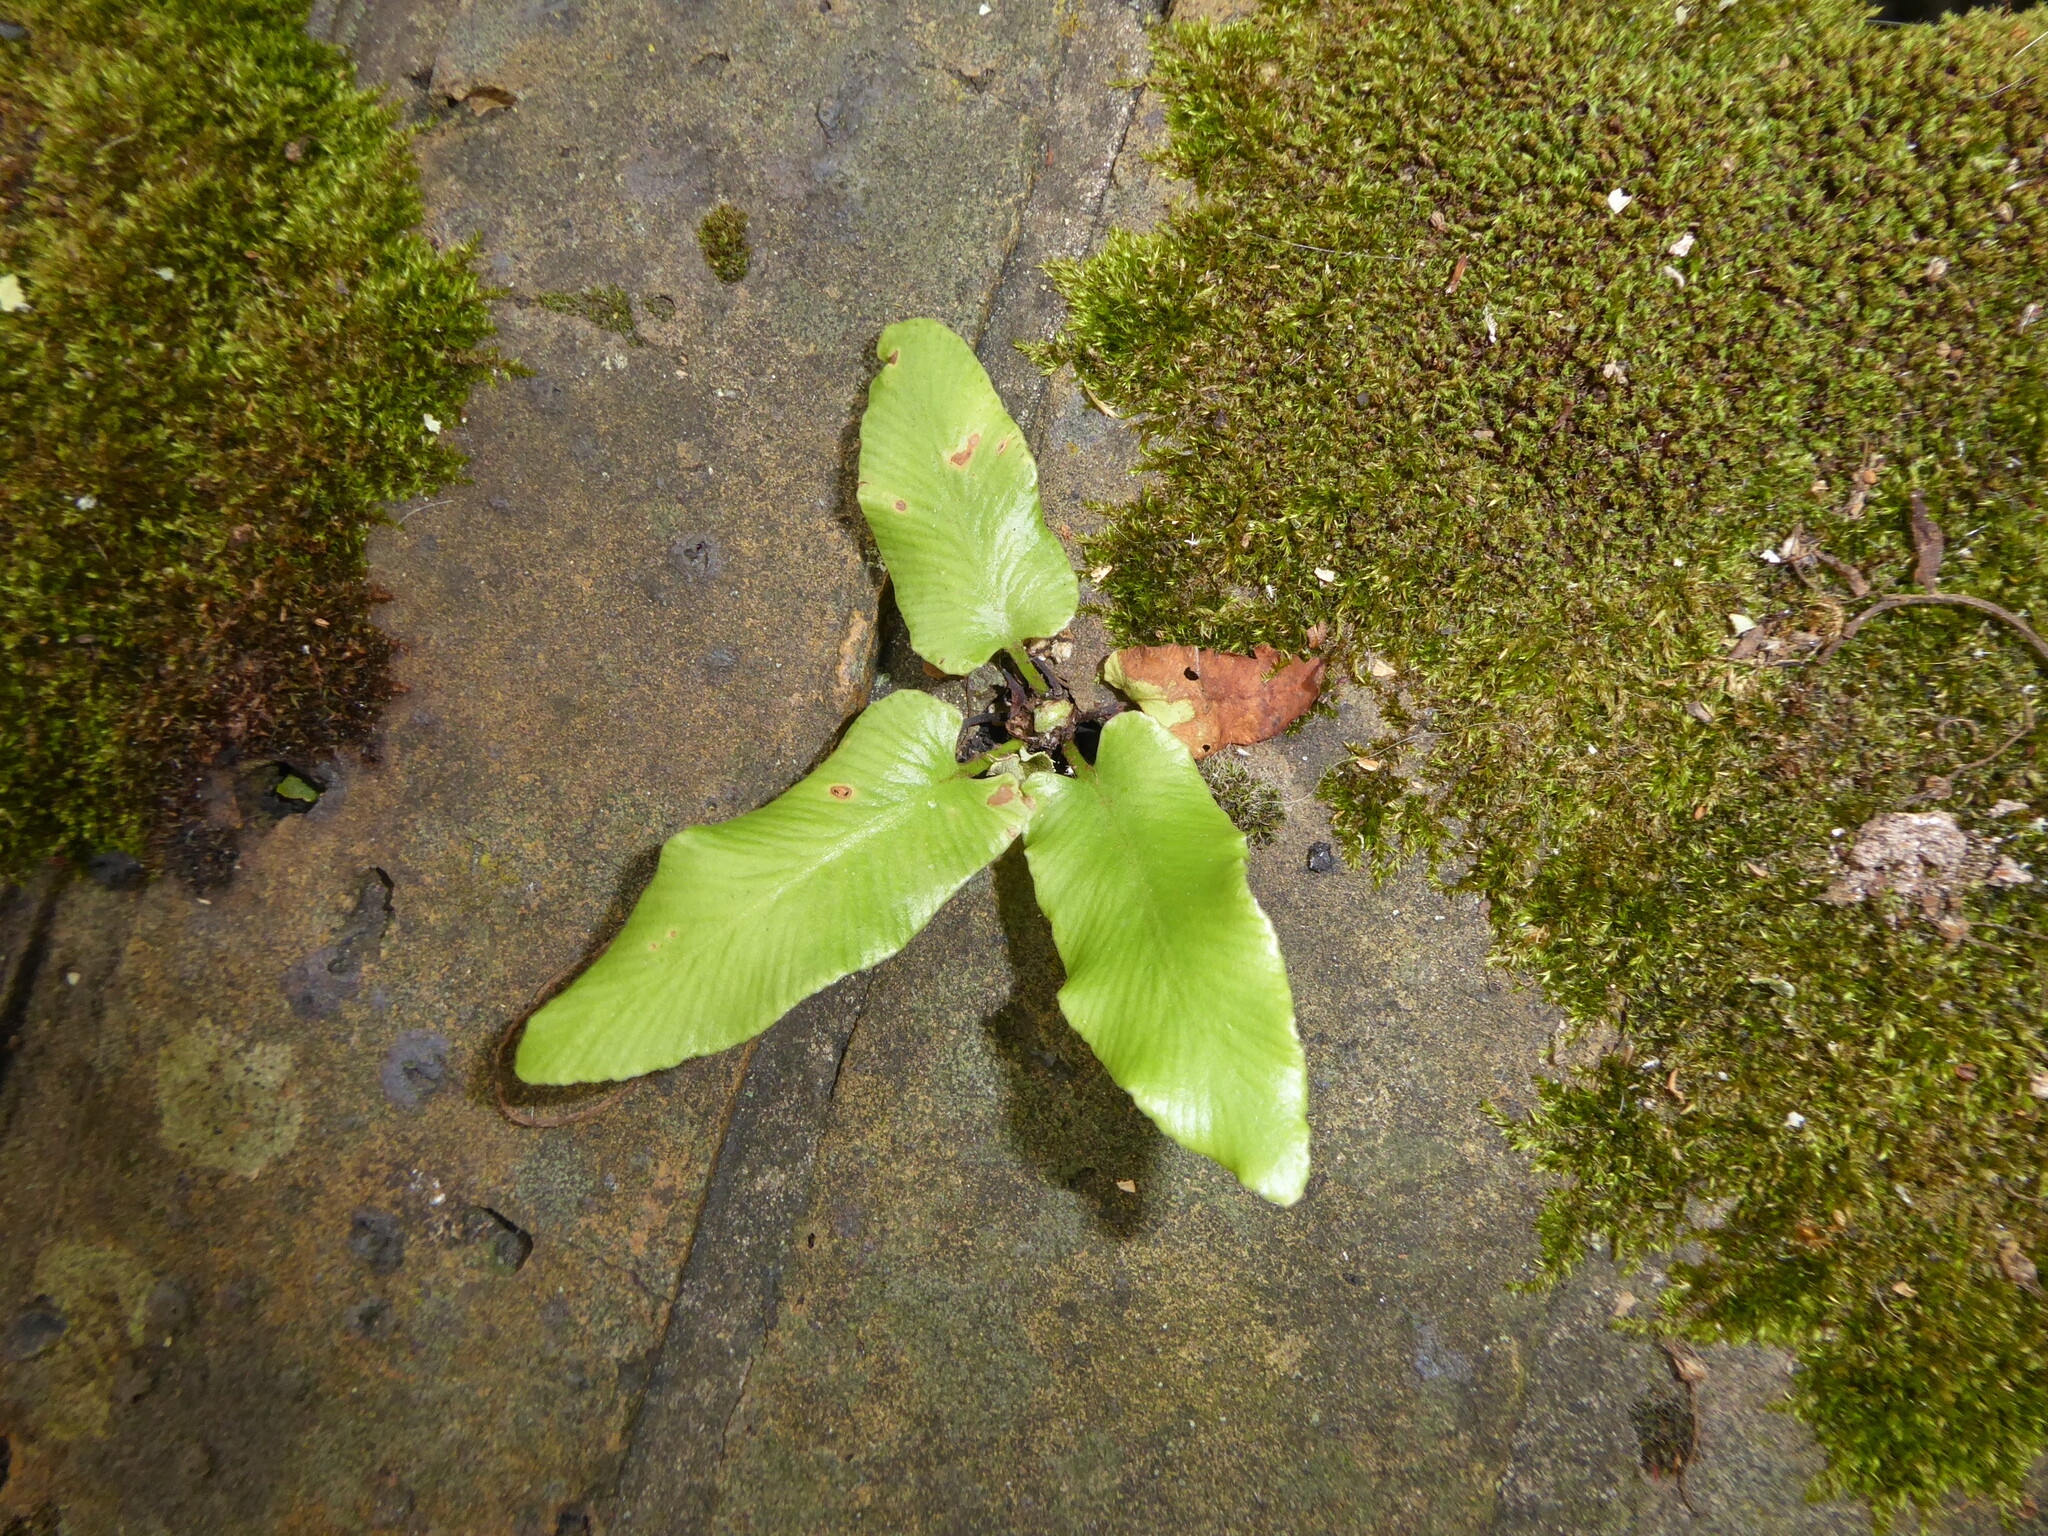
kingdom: Plantae
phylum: Tracheophyta
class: Polypodiopsida
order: Polypodiales
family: Aspleniaceae
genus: Asplenium
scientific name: Asplenium scolopendrium
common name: Hart's-tongue fern
